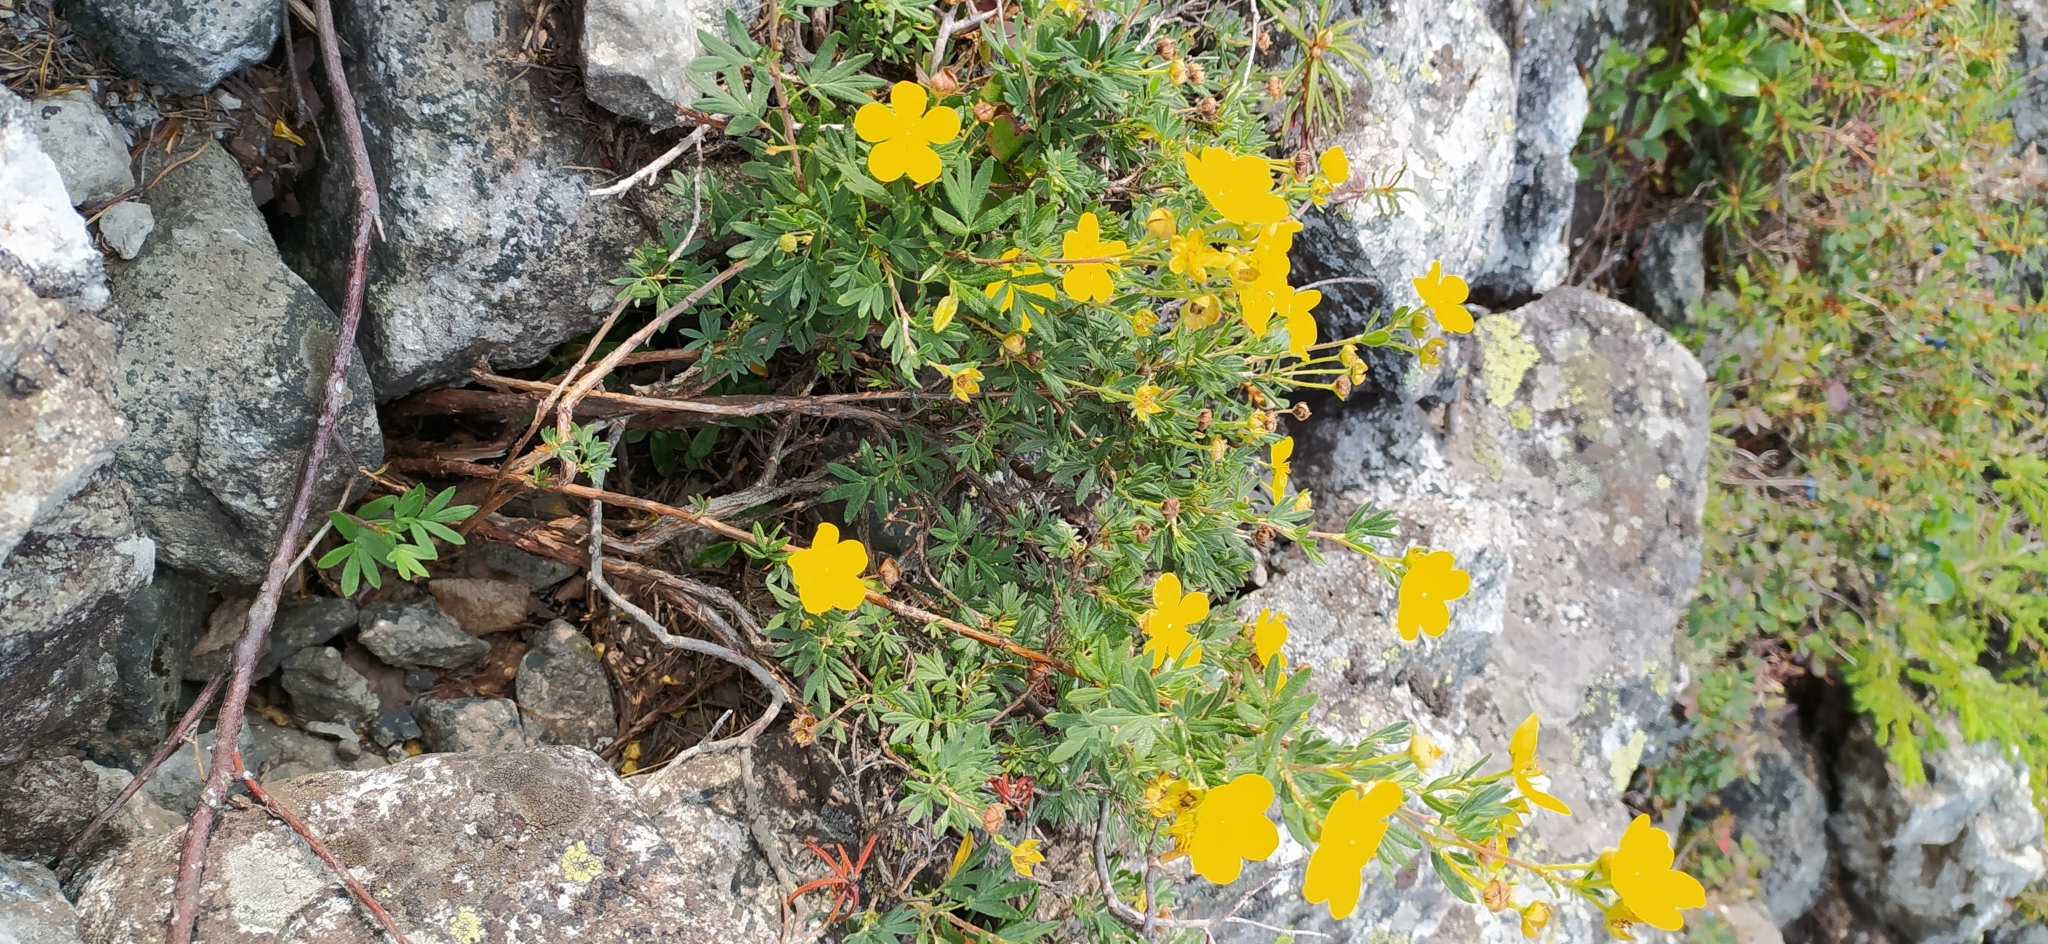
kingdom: Plantae
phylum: Tracheophyta
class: Magnoliopsida
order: Rosales
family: Rosaceae
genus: Dasiphora
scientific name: Dasiphora fruticosa
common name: Shrubby cinquefoil
